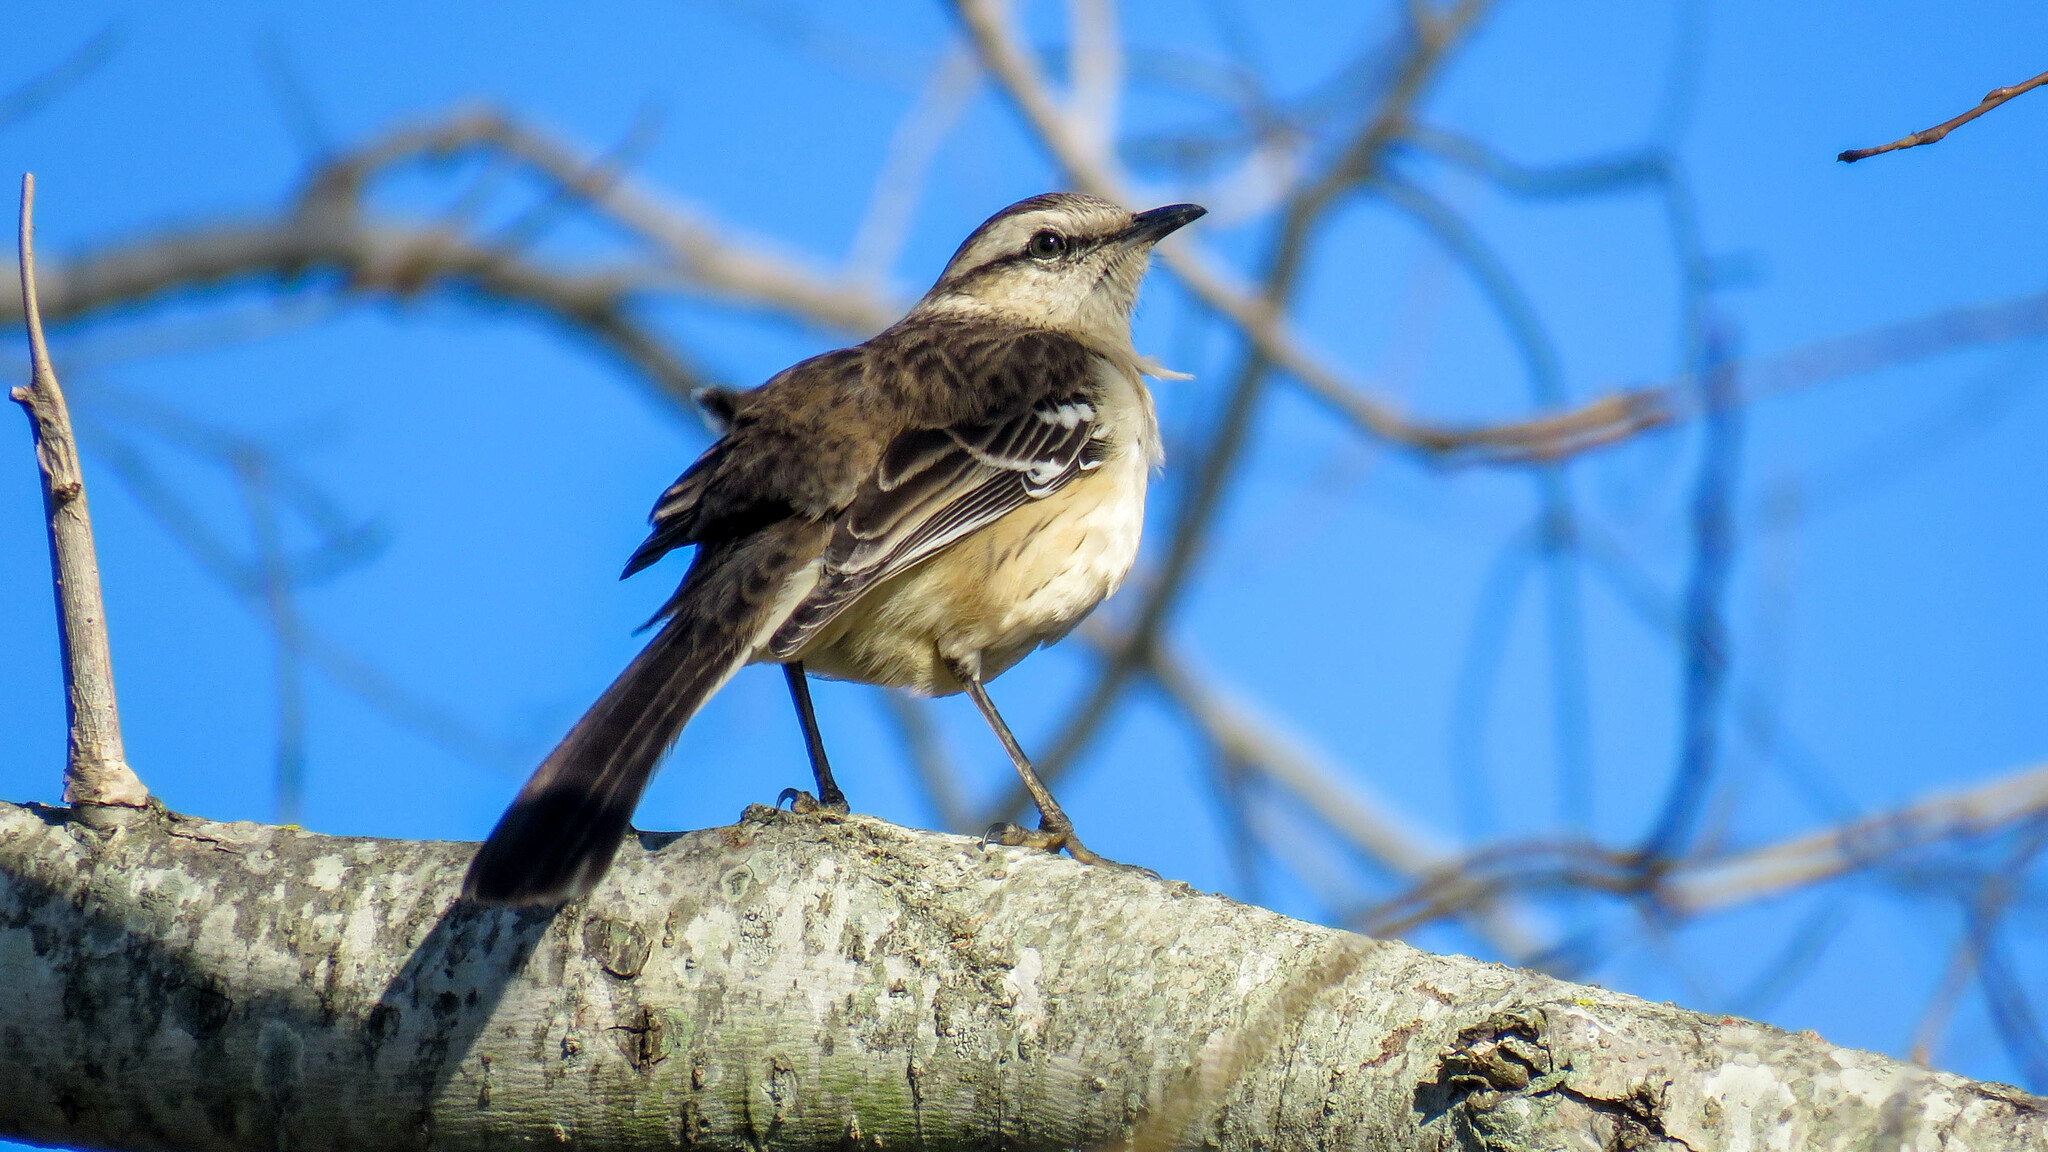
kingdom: Animalia
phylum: Chordata
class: Aves
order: Passeriformes
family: Mimidae
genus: Mimus
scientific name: Mimus saturninus
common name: Chalk-browed mockingbird
